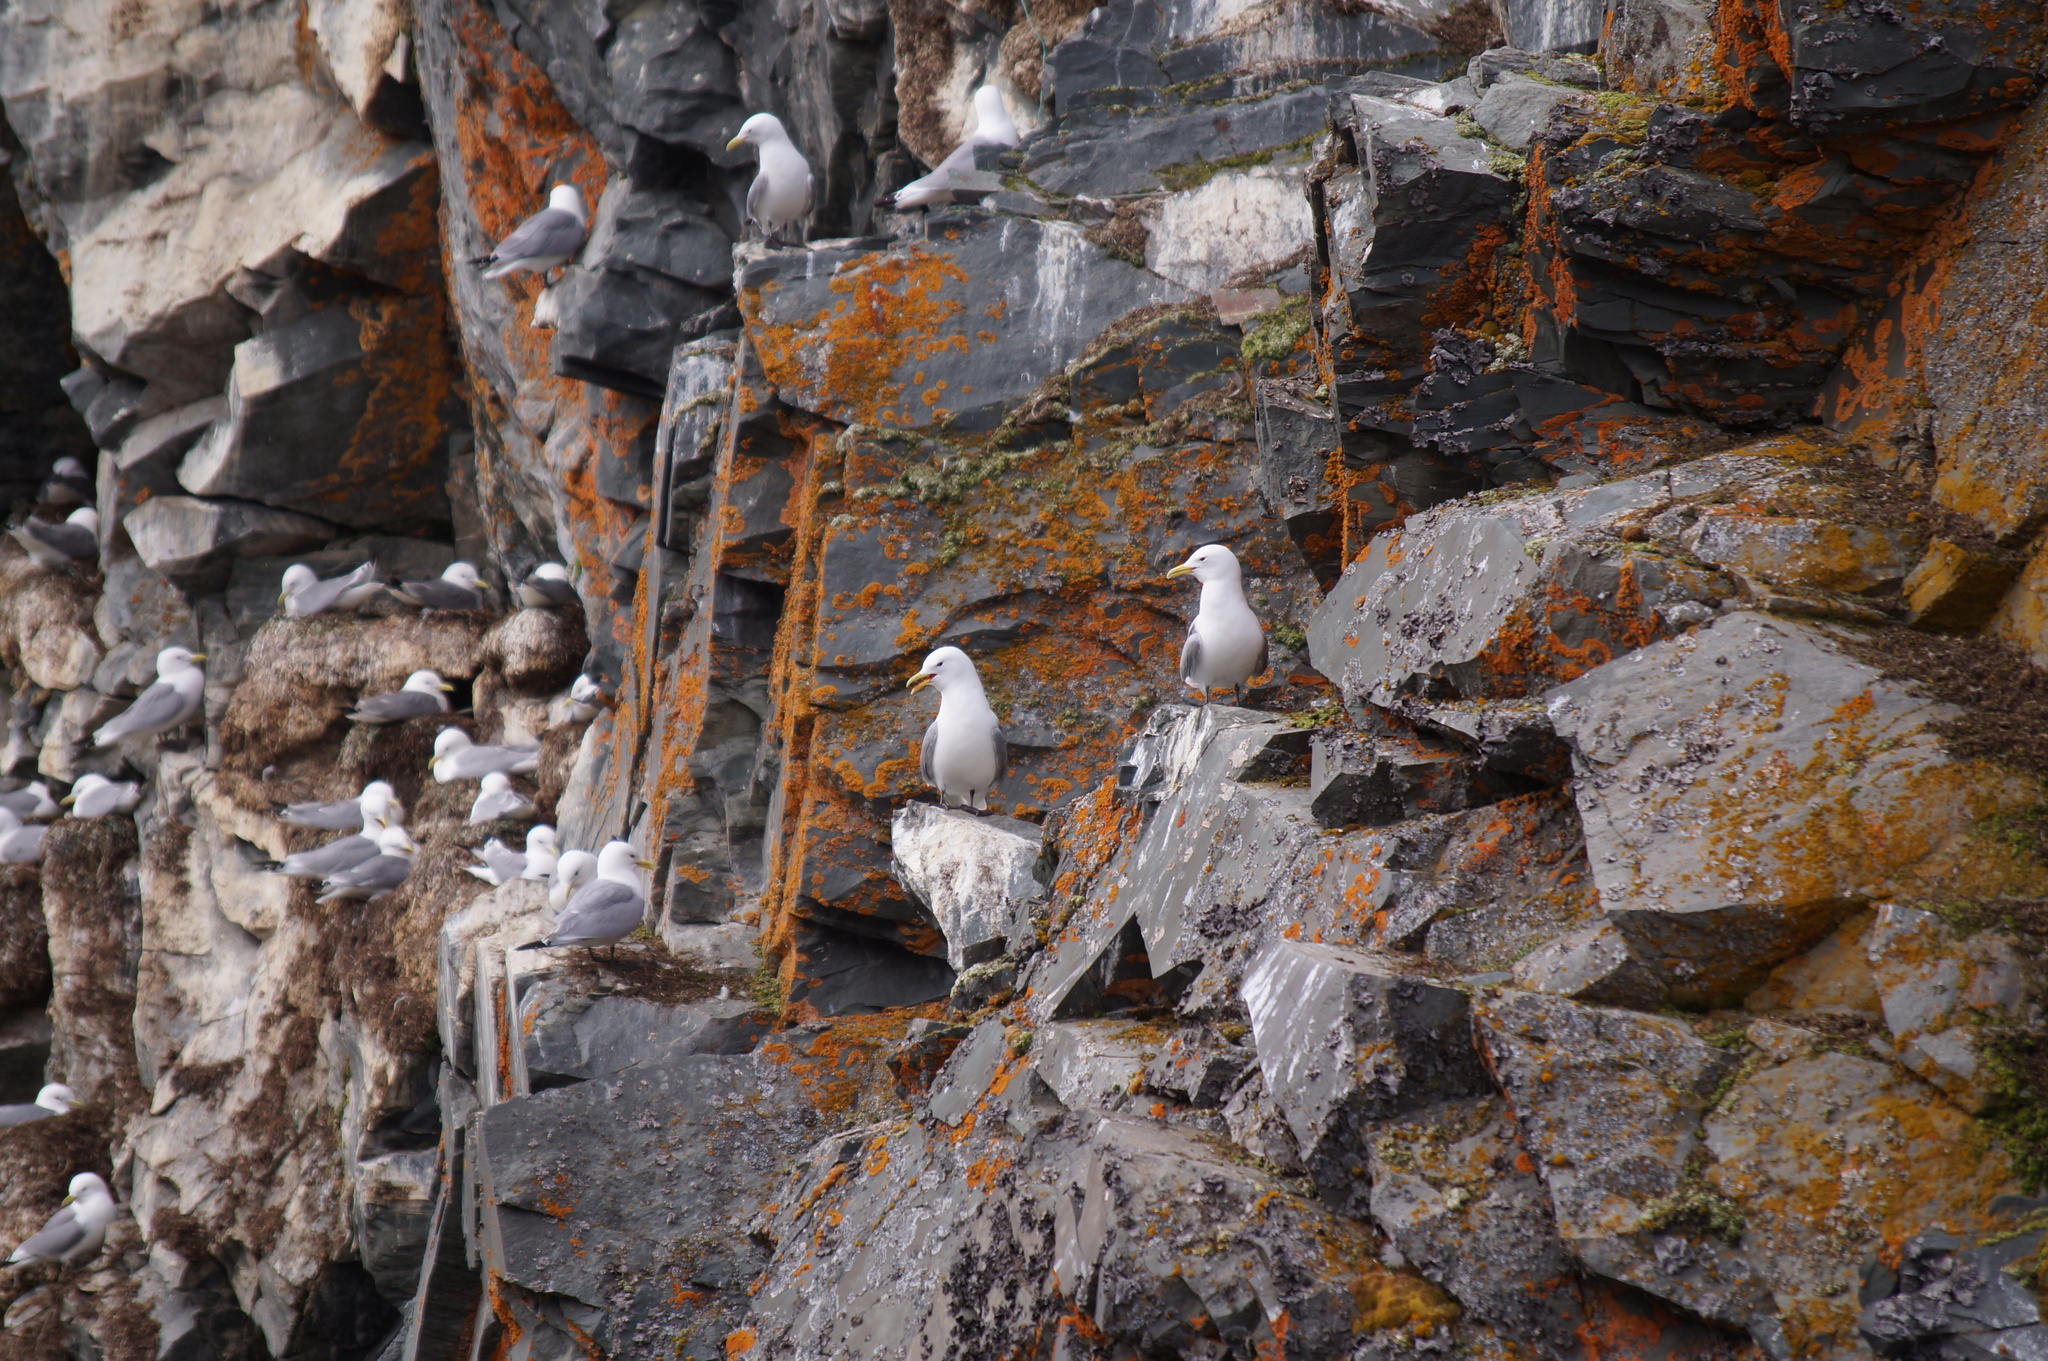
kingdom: Animalia
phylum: Chordata
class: Aves
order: Charadriiformes
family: Laridae
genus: Rissa
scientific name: Rissa tridactyla
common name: Black-legged kittiwake
